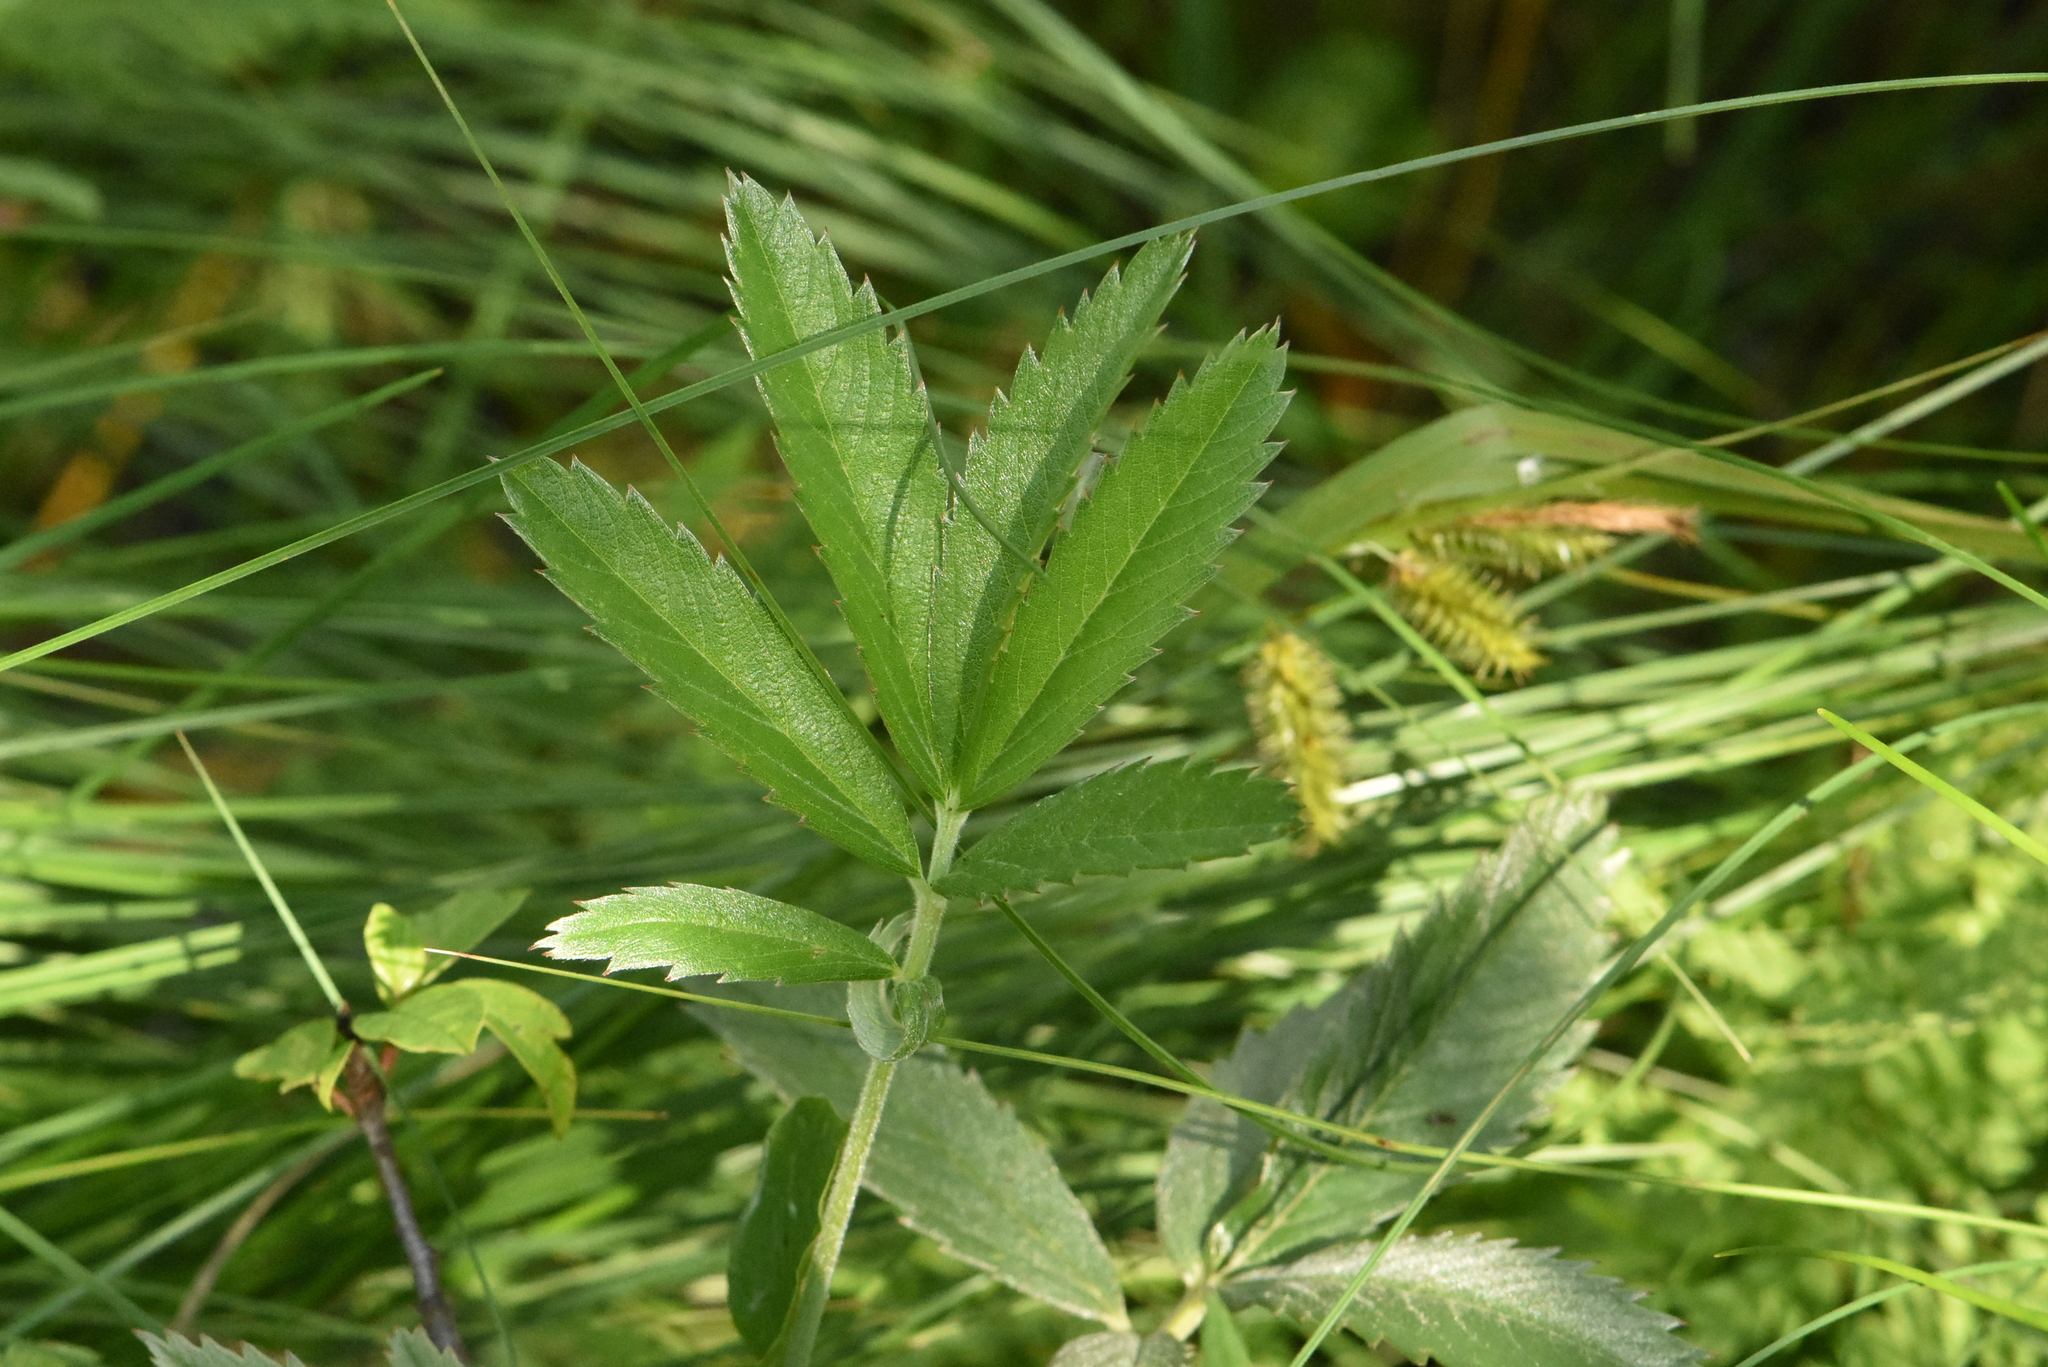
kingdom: Plantae
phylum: Tracheophyta
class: Magnoliopsida
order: Rosales
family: Rosaceae
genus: Comarum
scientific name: Comarum palustre
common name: Marsh cinquefoil
